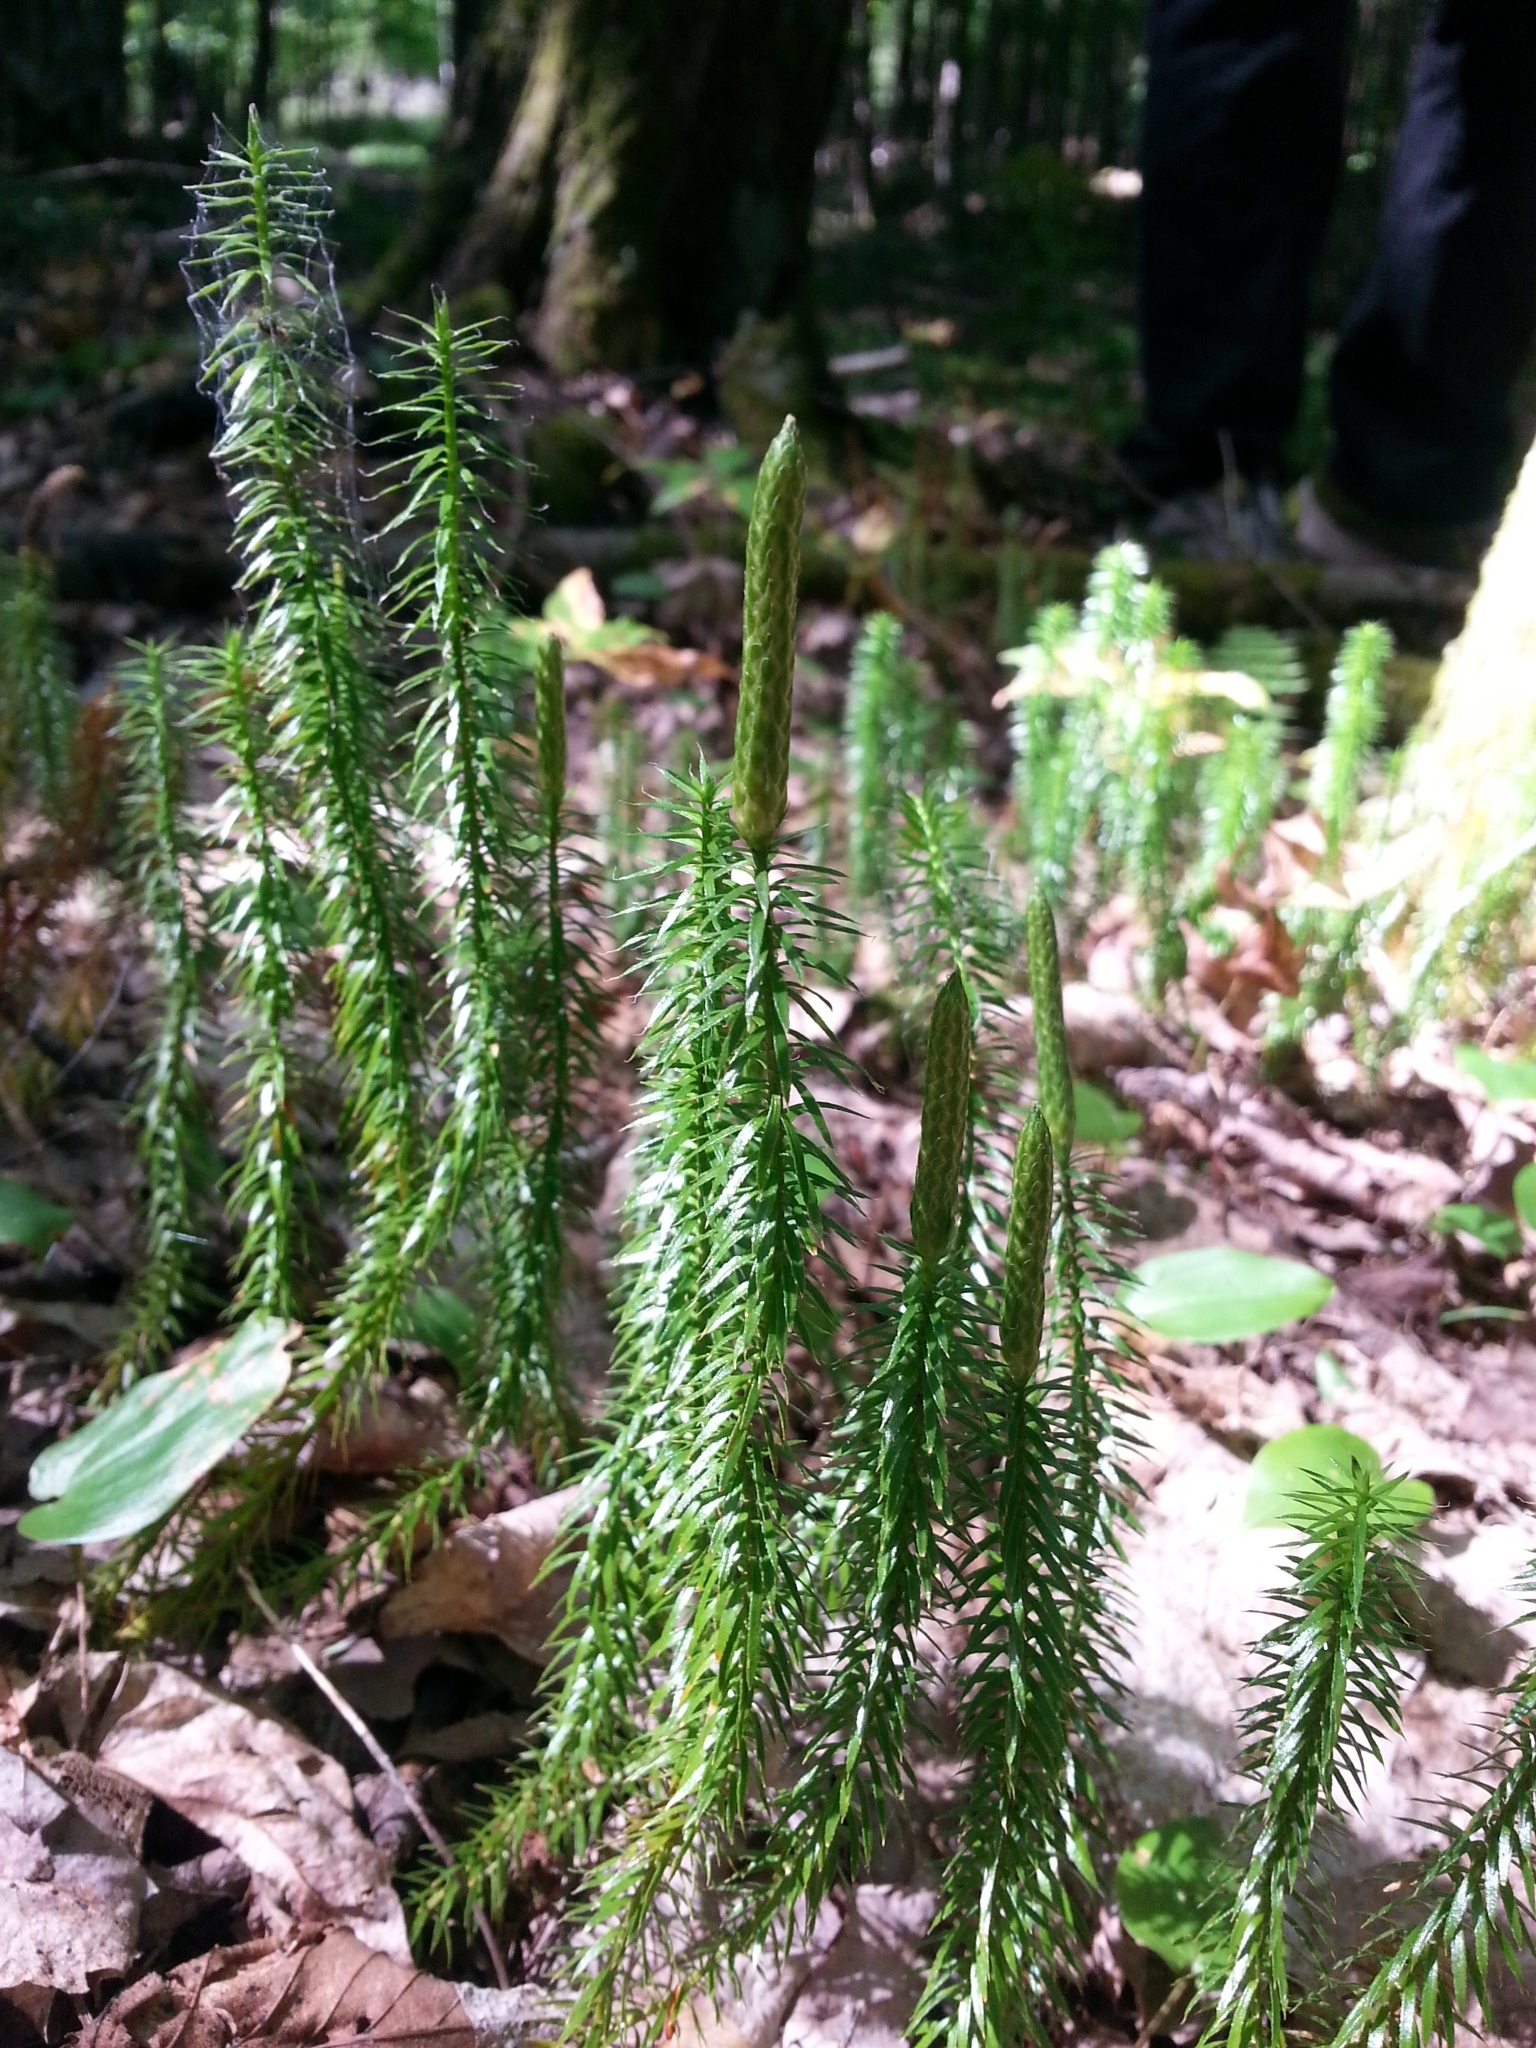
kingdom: Plantae
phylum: Tracheophyta
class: Lycopodiopsida
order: Lycopodiales
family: Lycopodiaceae
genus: Spinulum
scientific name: Spinulum annotinum
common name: Interrupted club-moss
